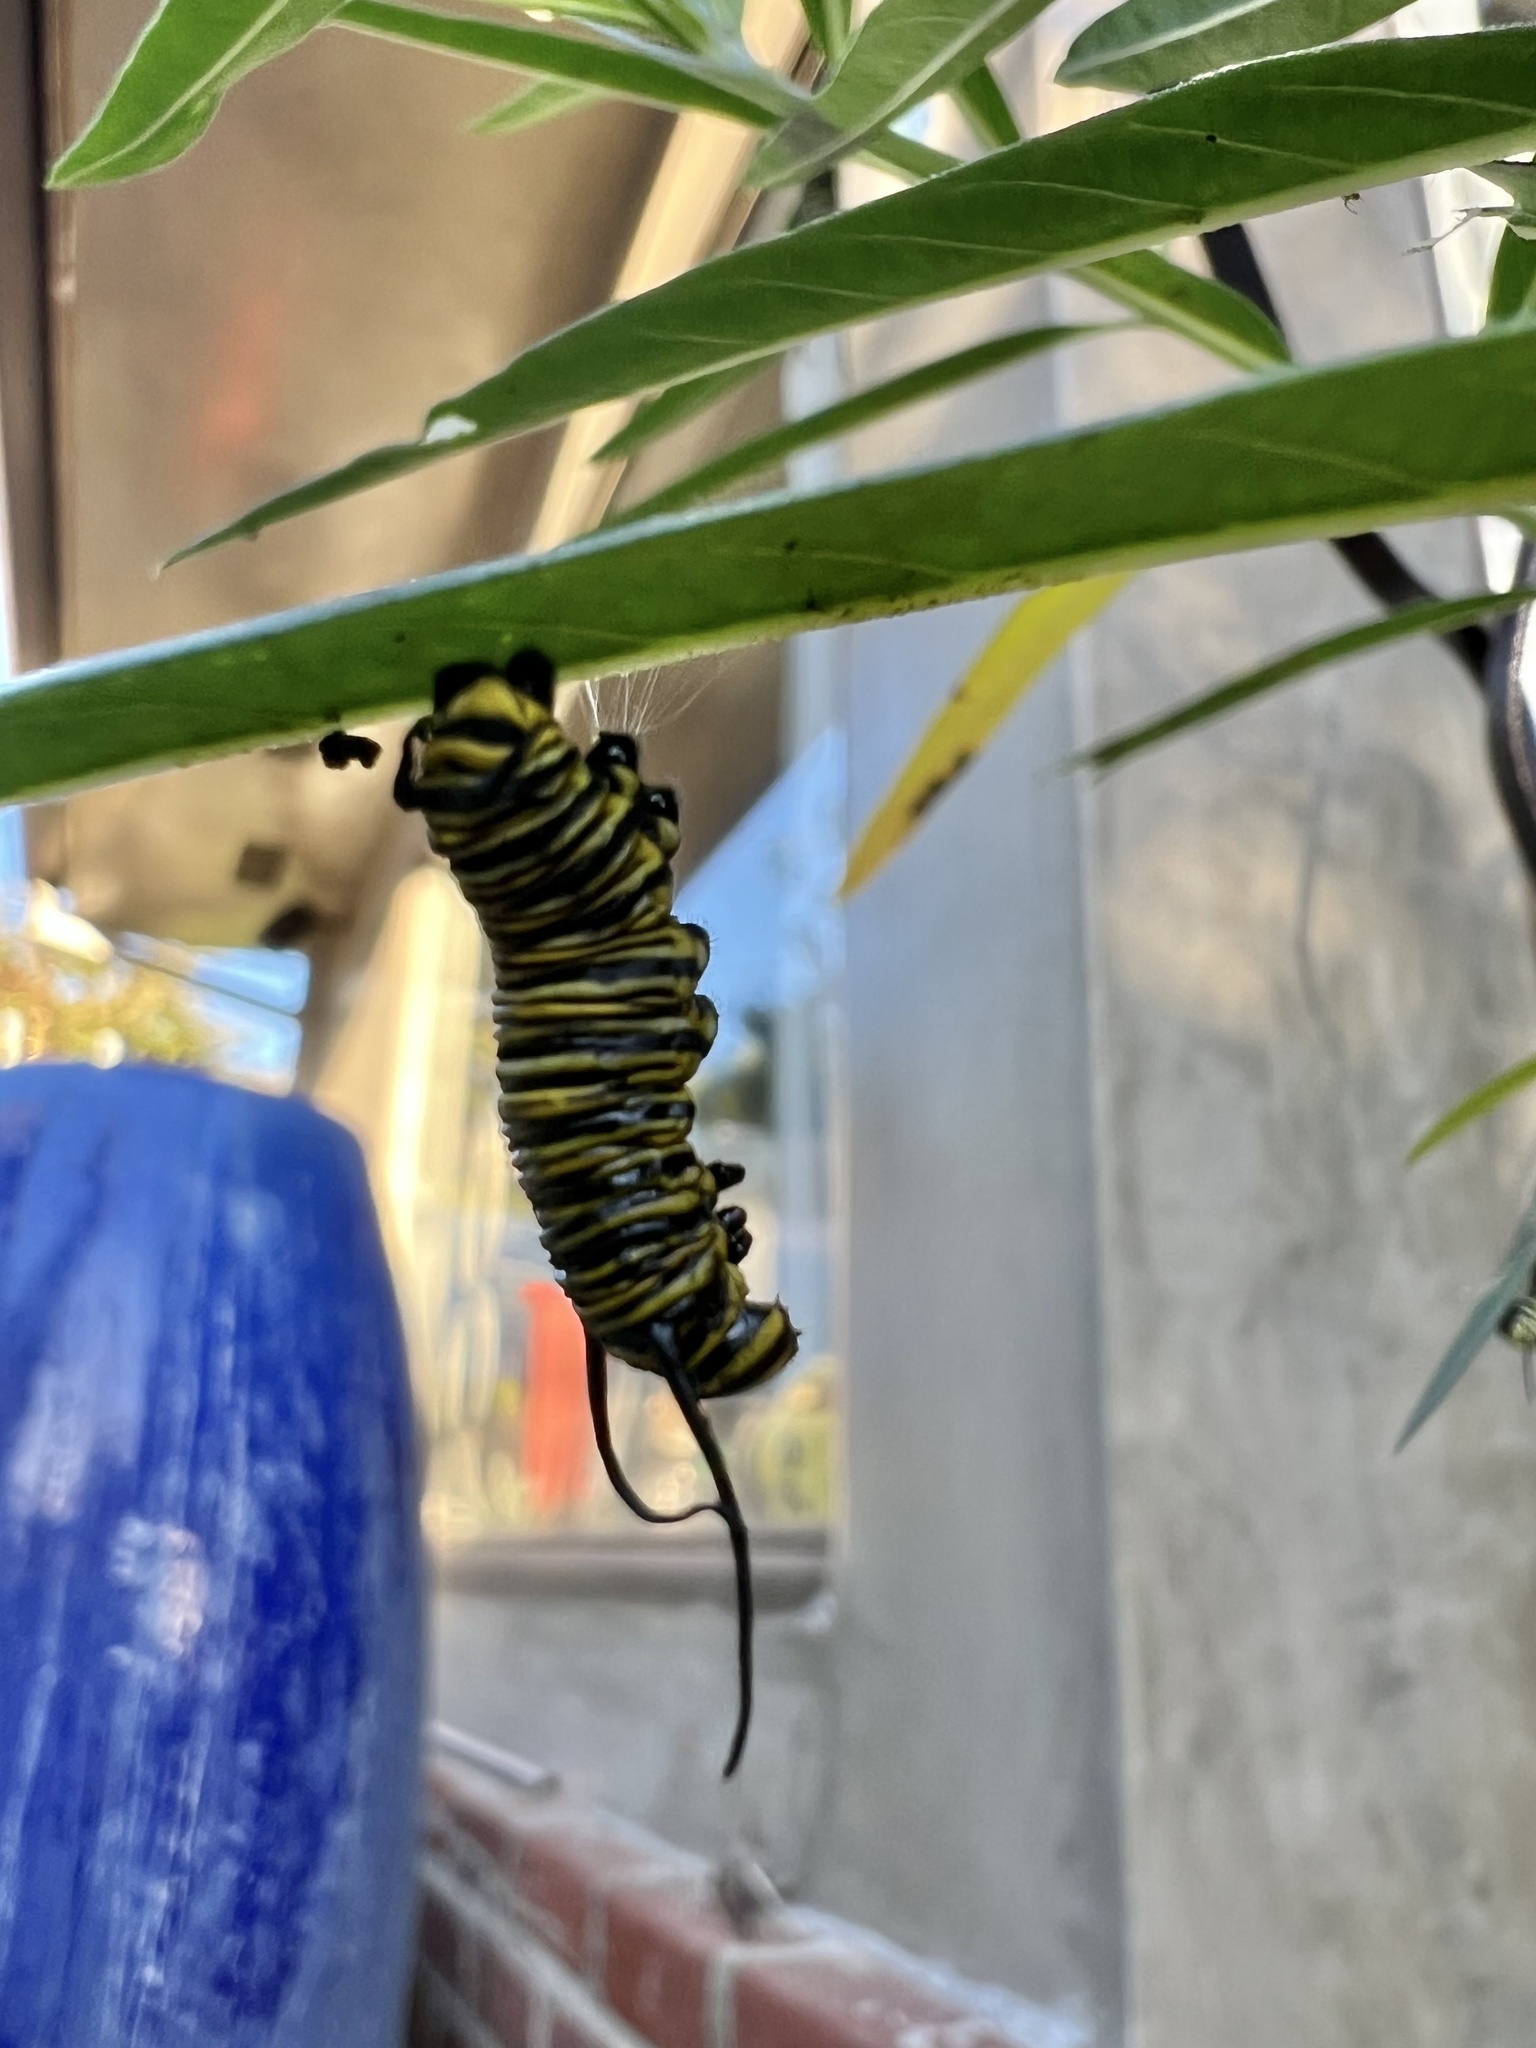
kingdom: Animalia
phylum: Arthropoda
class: Insecta
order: Lepidoptera
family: Nymphalidae
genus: Danaus
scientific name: Danaus plexippus
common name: Monarch
